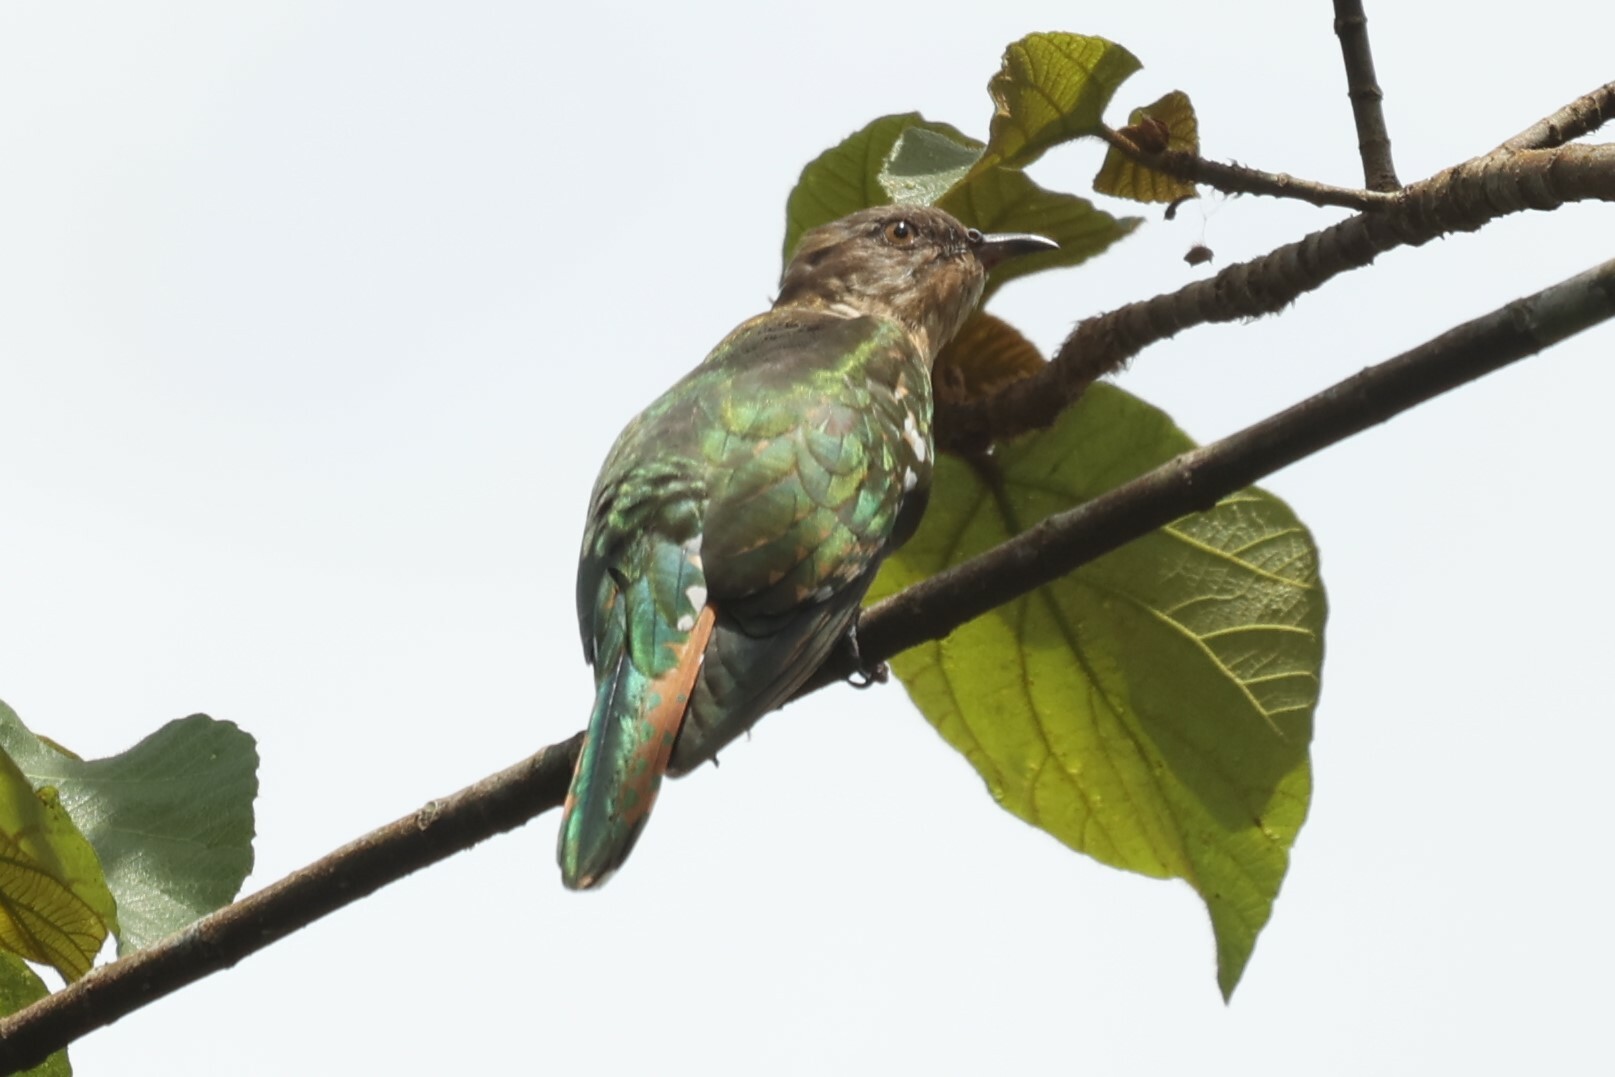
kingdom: Animalia
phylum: Chordata
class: Aves
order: Cuculiformes
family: Cuculidae
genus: Chrysococcyx
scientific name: Chrysococcyx caprius
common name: Diederik cuckoo
